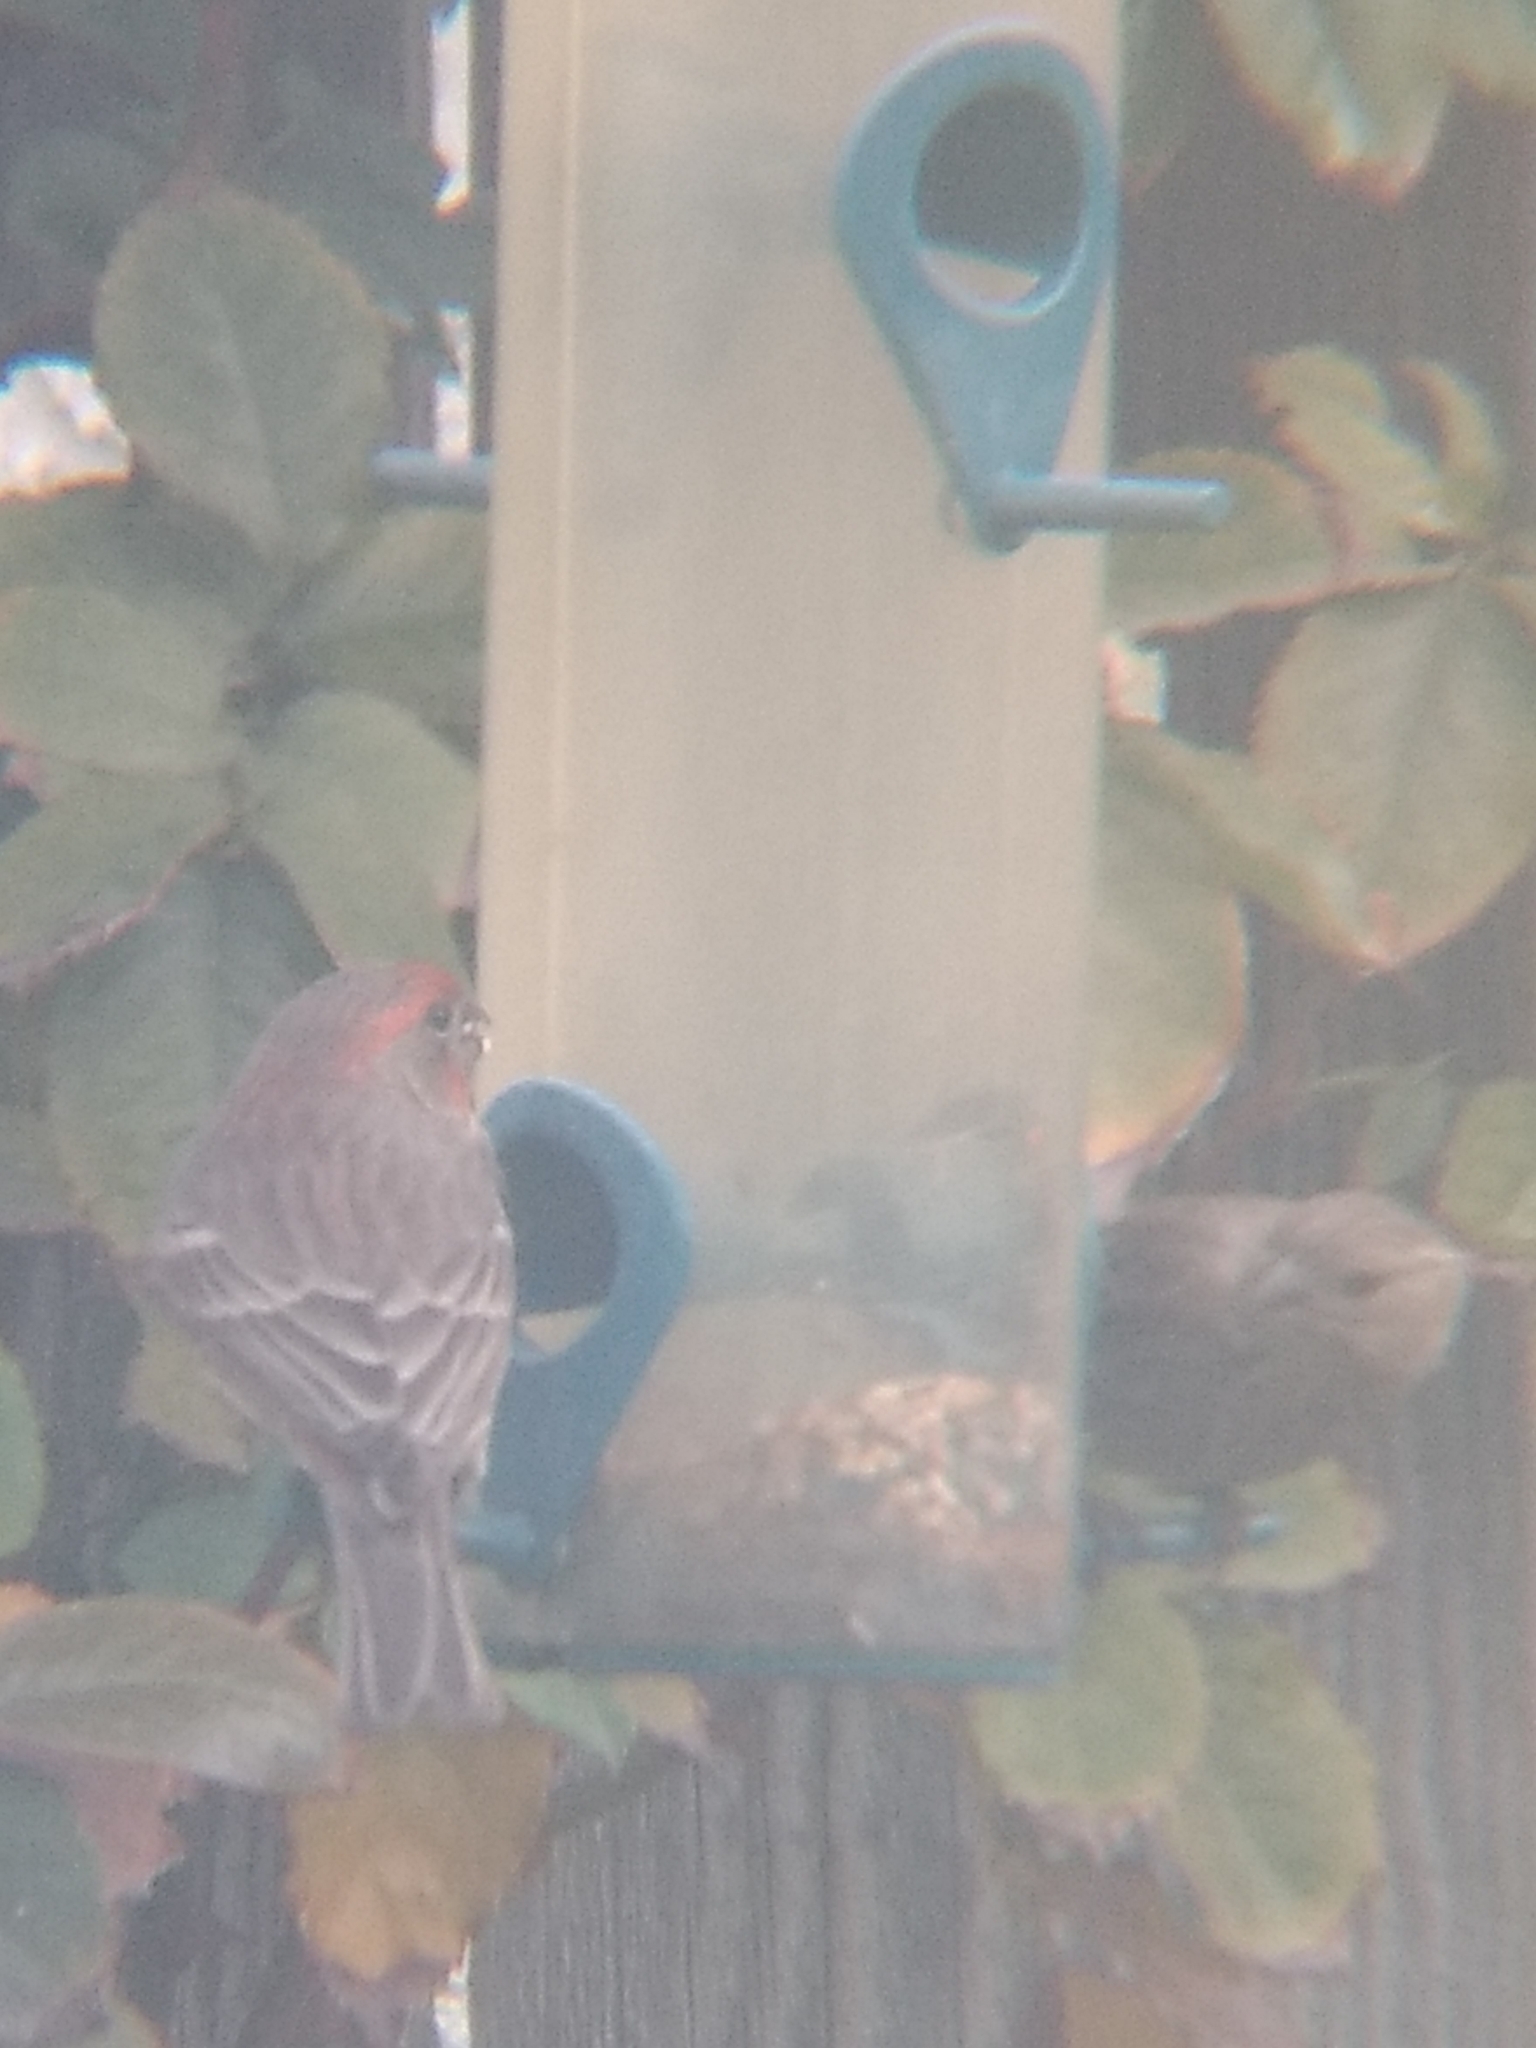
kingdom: Animalia
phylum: Chordata
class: Aves
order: Passeriformes
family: Fringillidae
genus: Haemorhous
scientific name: Haemorhous mexicanus
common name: House finch
